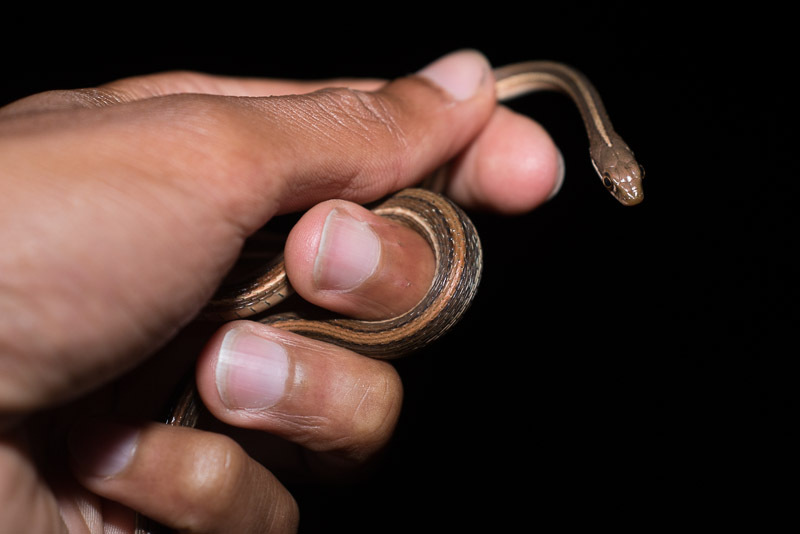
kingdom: Animalia
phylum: Chordata
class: Squamata
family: Colubridae
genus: Thamnophis
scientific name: Thamnophis saurita
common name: Eastern ribbonsnake
